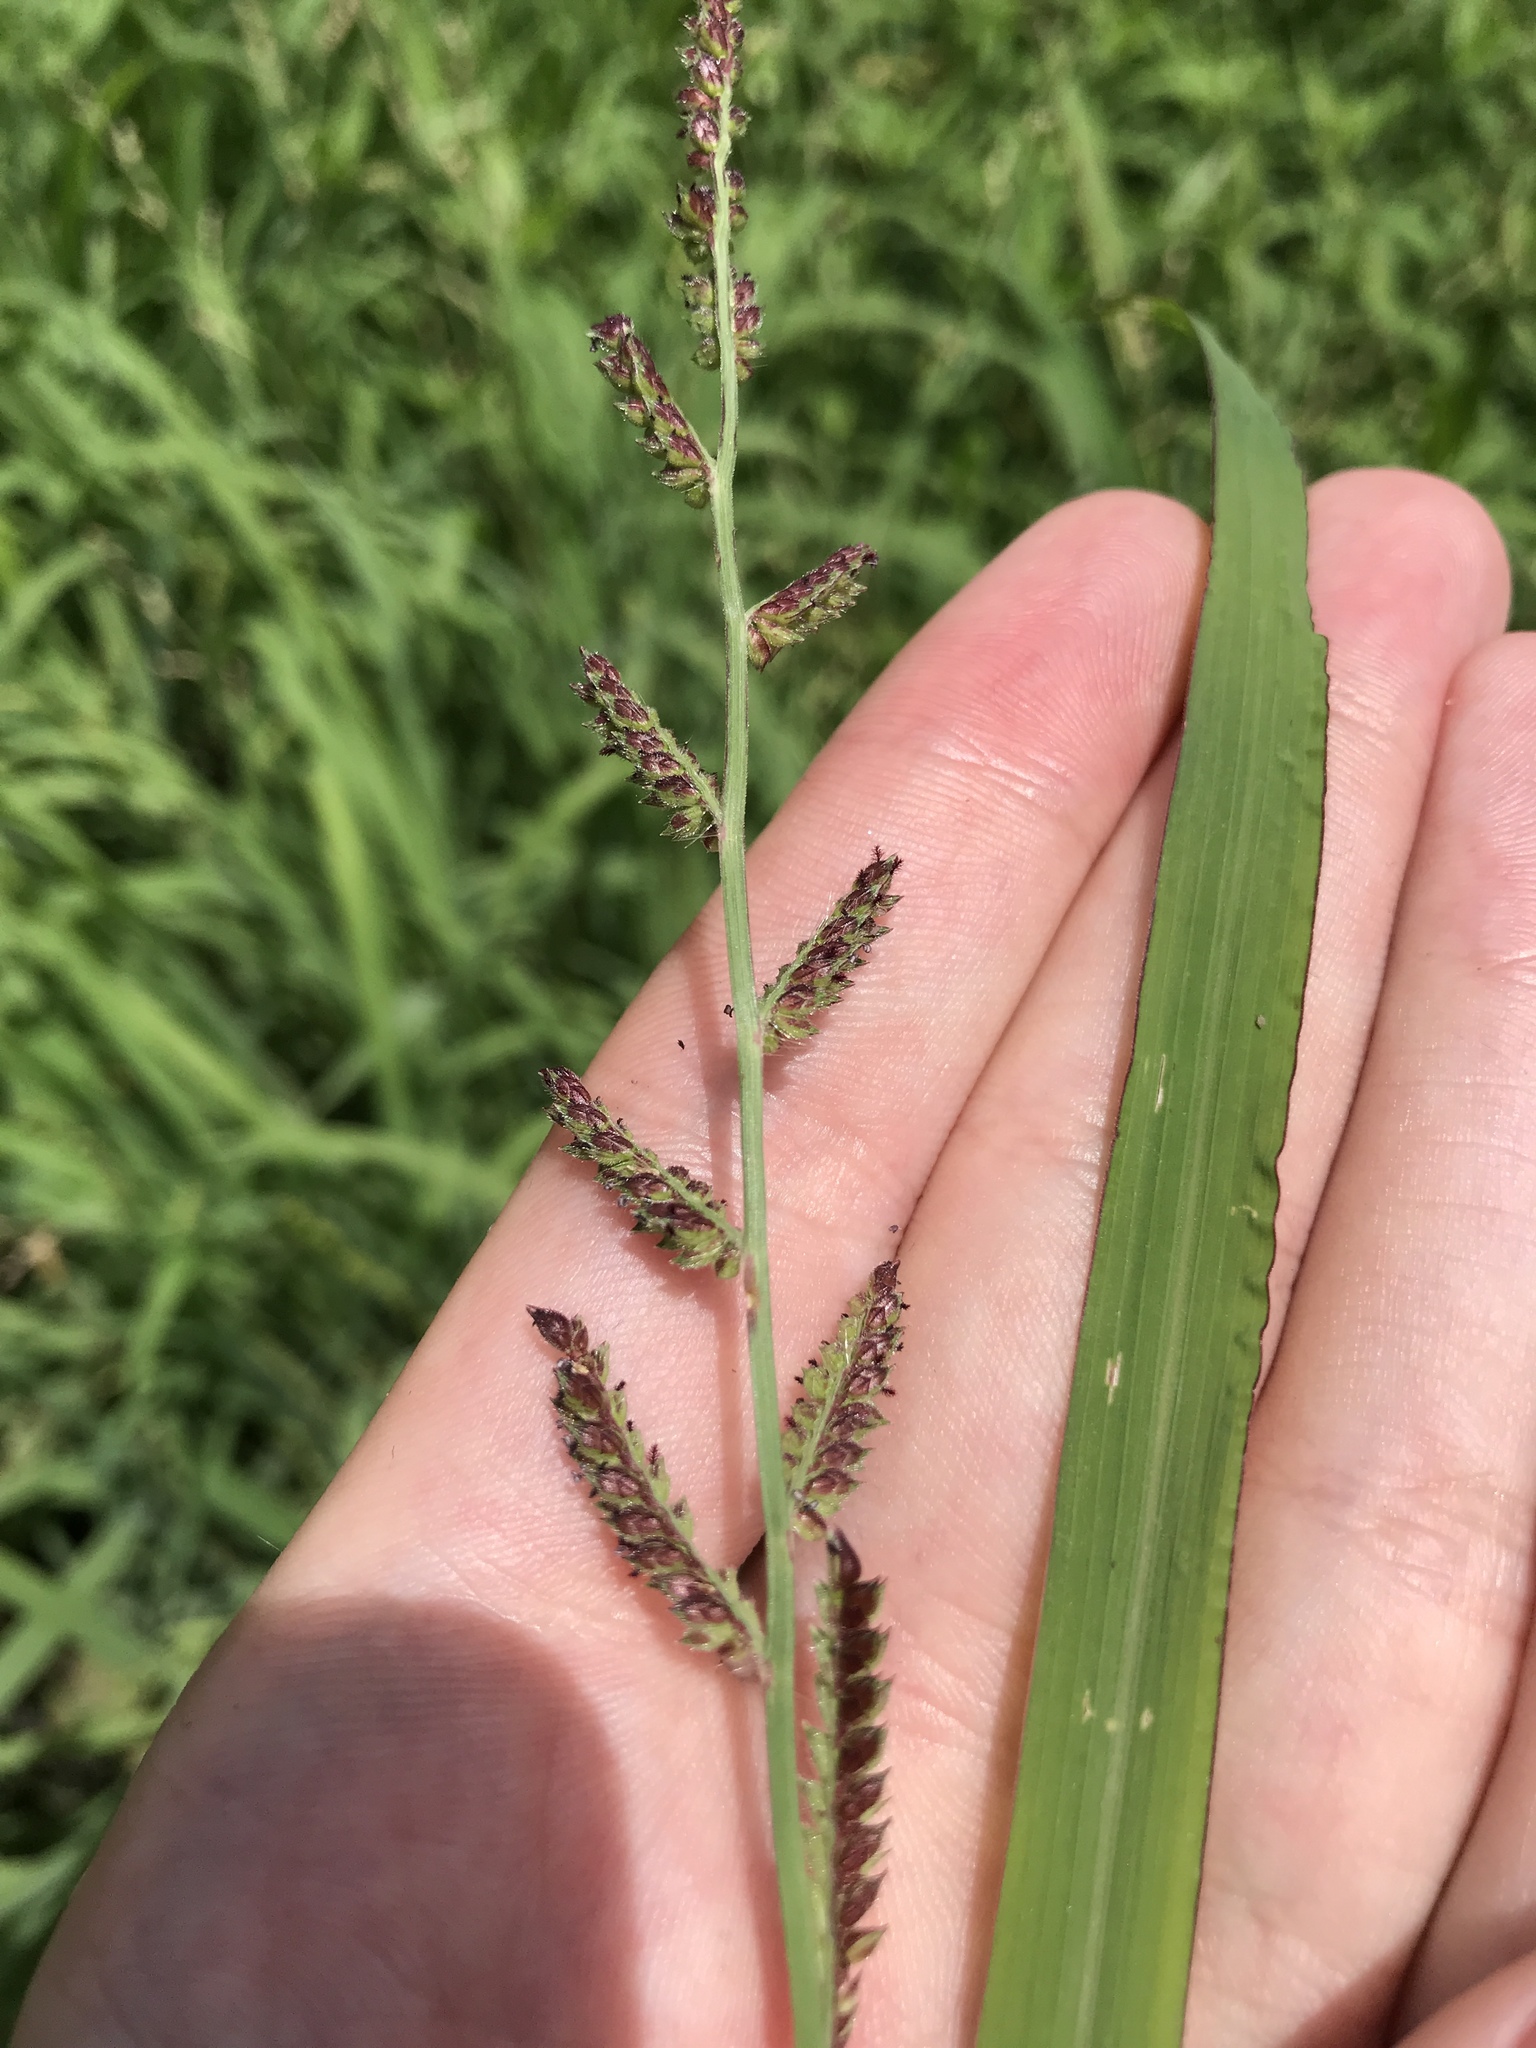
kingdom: Plantae
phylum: Tracheophyta
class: Liliopsida
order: Poales
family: Poaceae
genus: Echinochloa
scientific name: Echinochloa colonum
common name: Jungle rice
